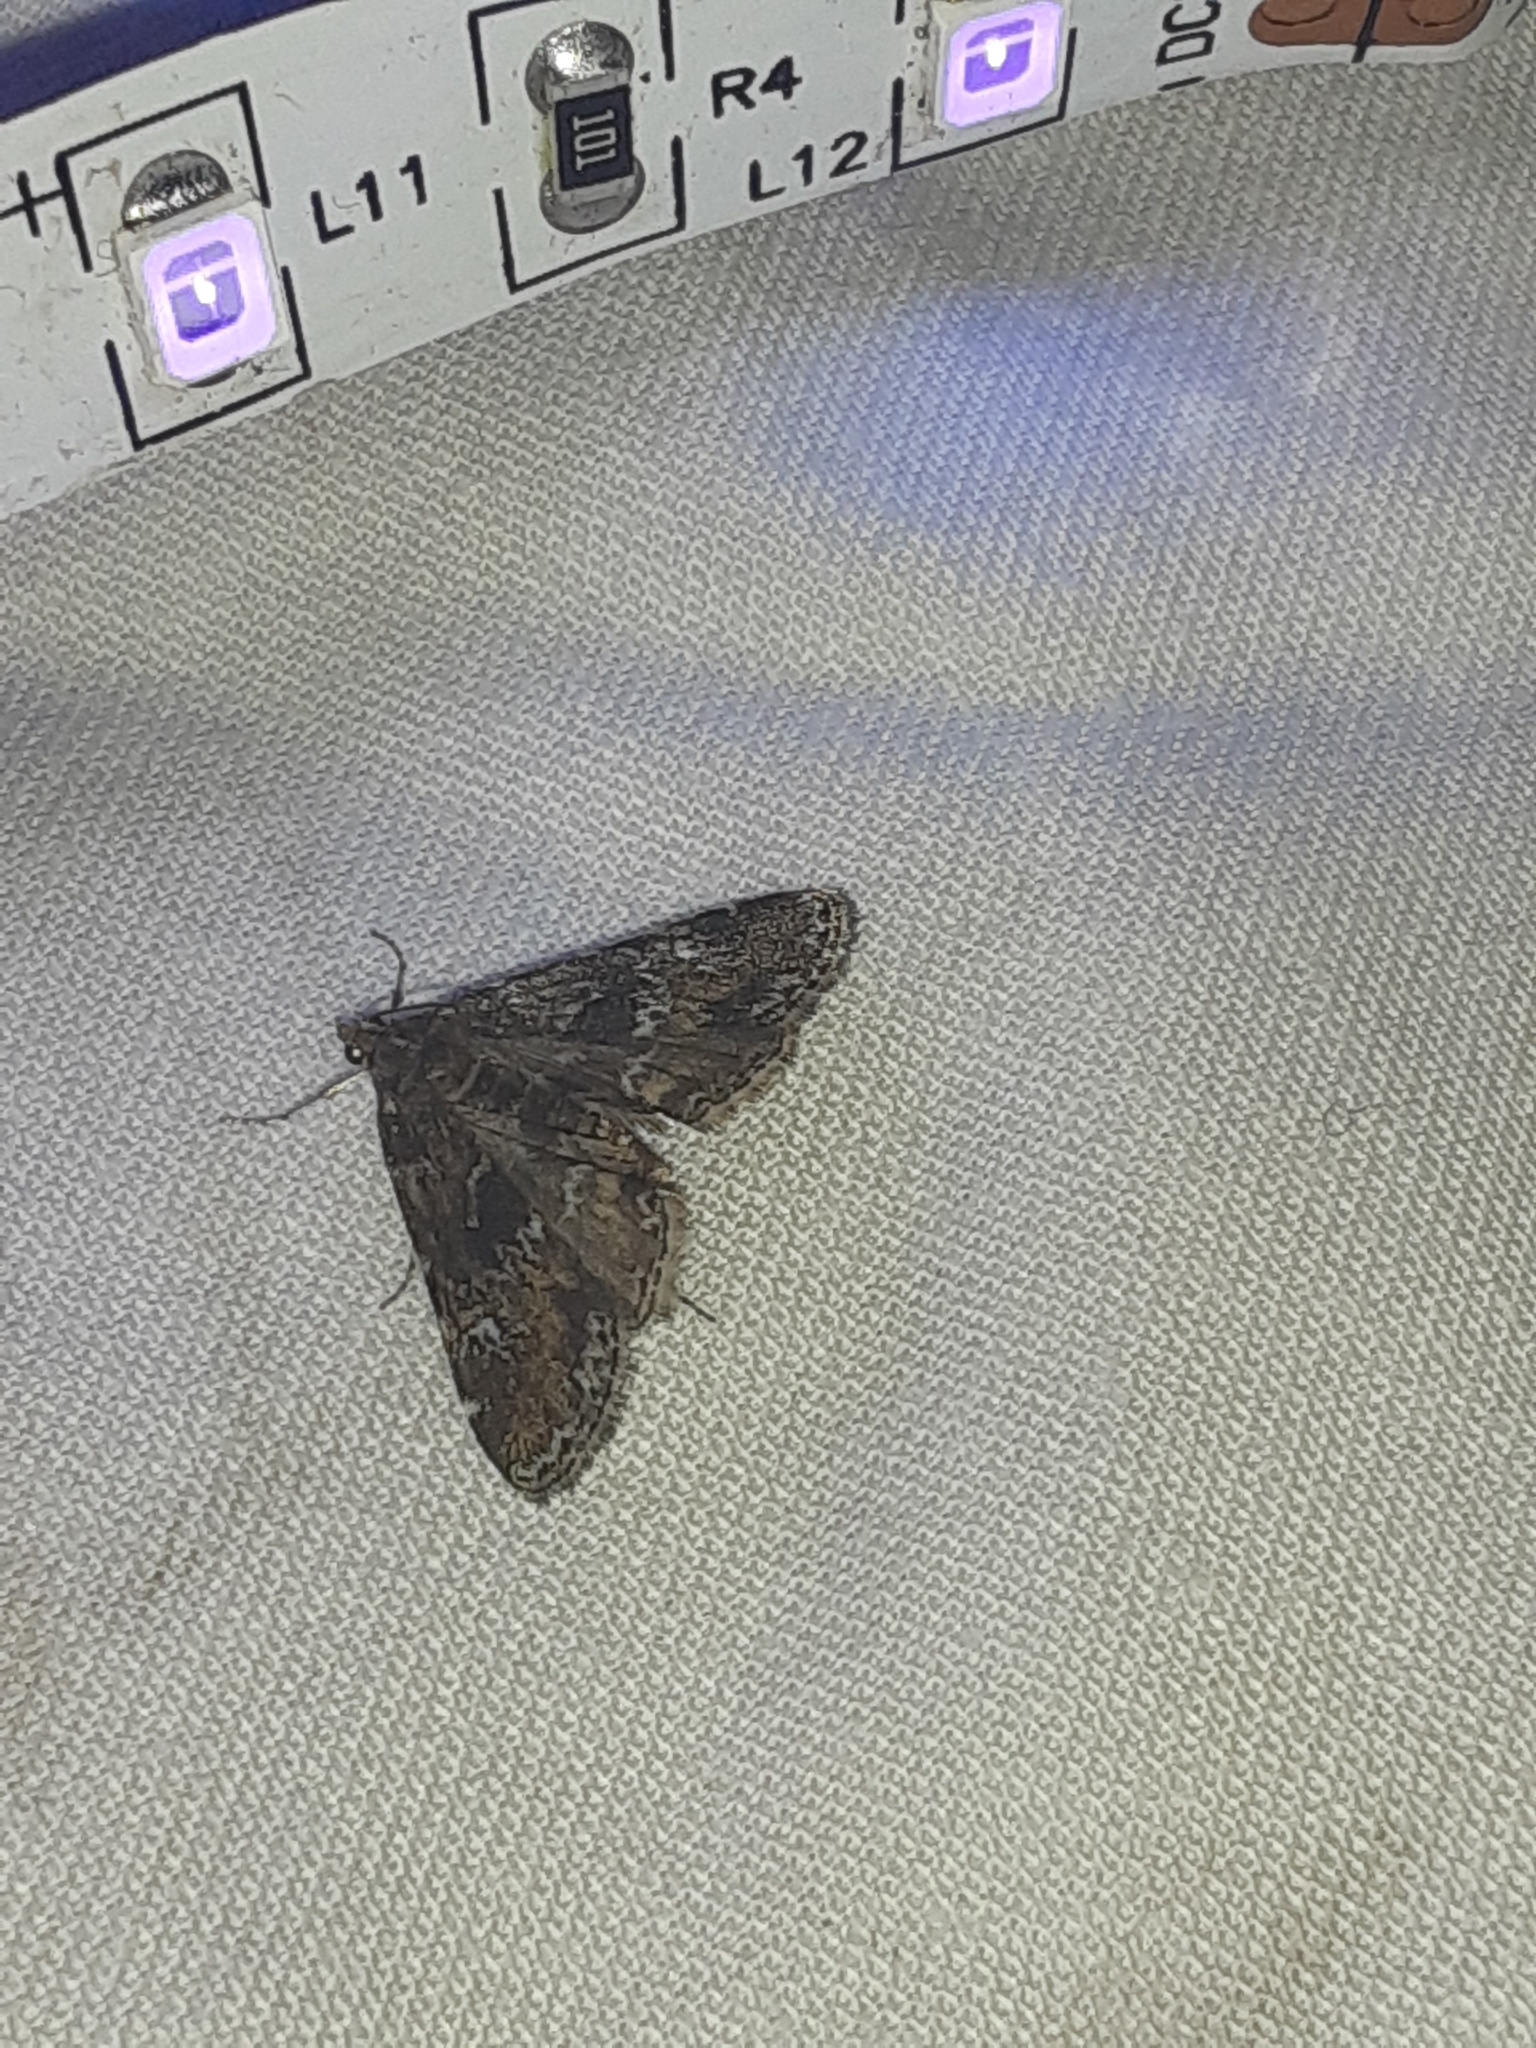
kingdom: Animalia
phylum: Arthropoda
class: Insecta
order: Lepidoptera
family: Crambidae
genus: Elophila
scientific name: Elophila obliteralis
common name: Waterlily leafcutter moth
